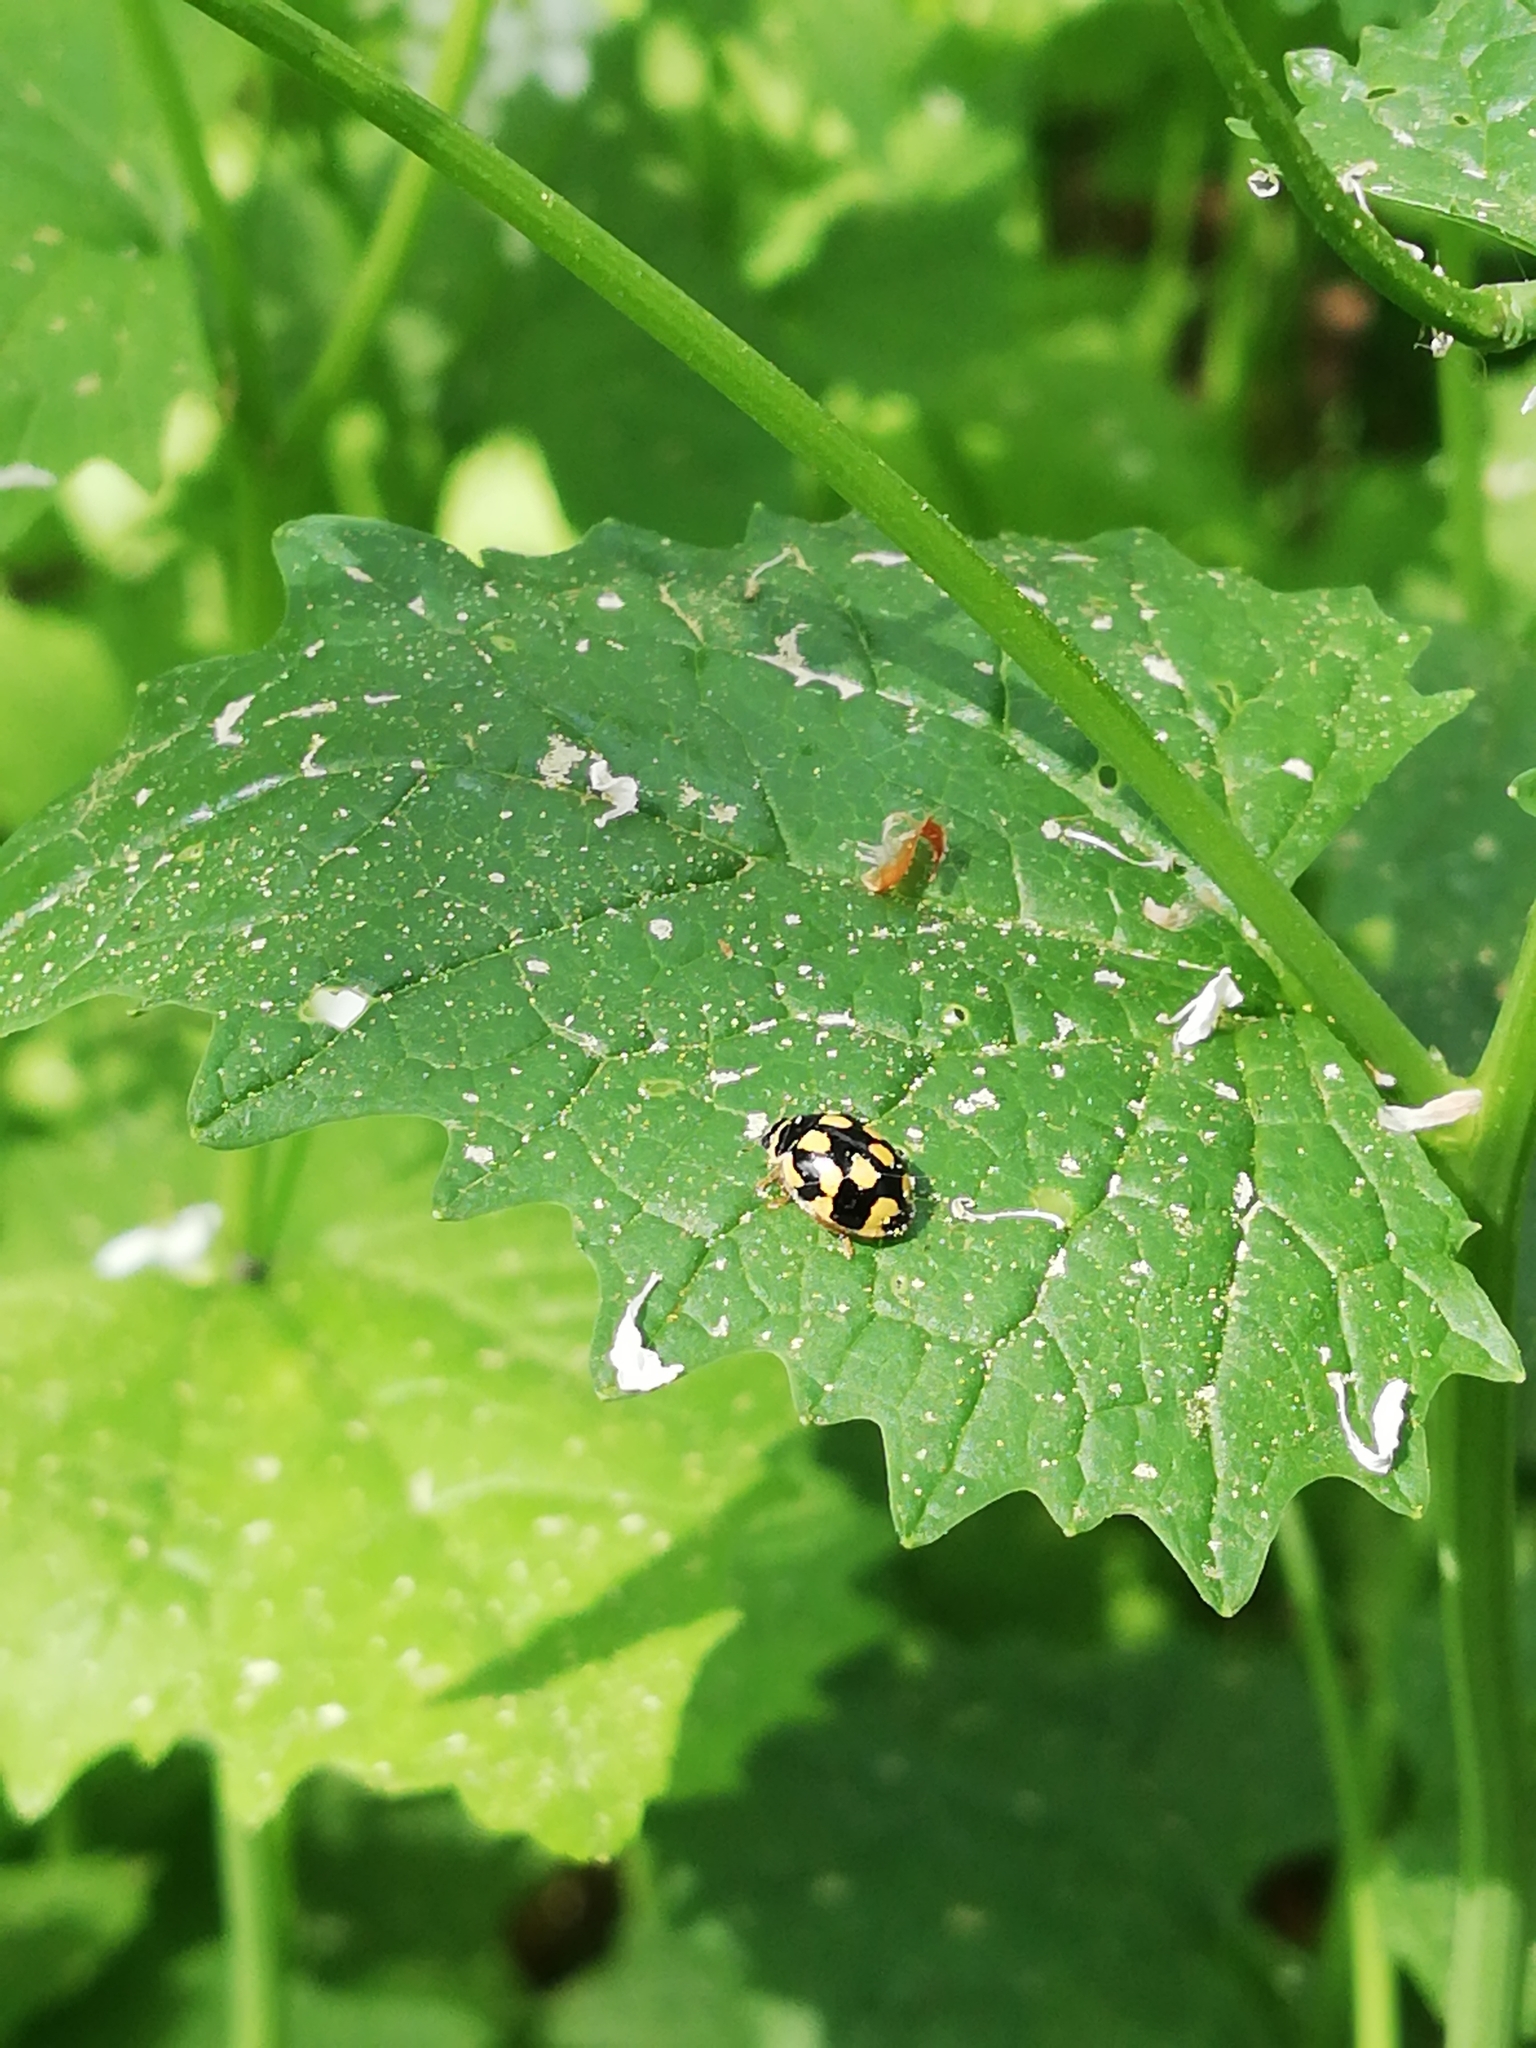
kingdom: Animalia
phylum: Arthropoda
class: Insecta
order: Coleoptera
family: Coccinellidae
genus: Propylaea
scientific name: Propylaea quatuordecimpunctata
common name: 14-spotted ladybird beetle
